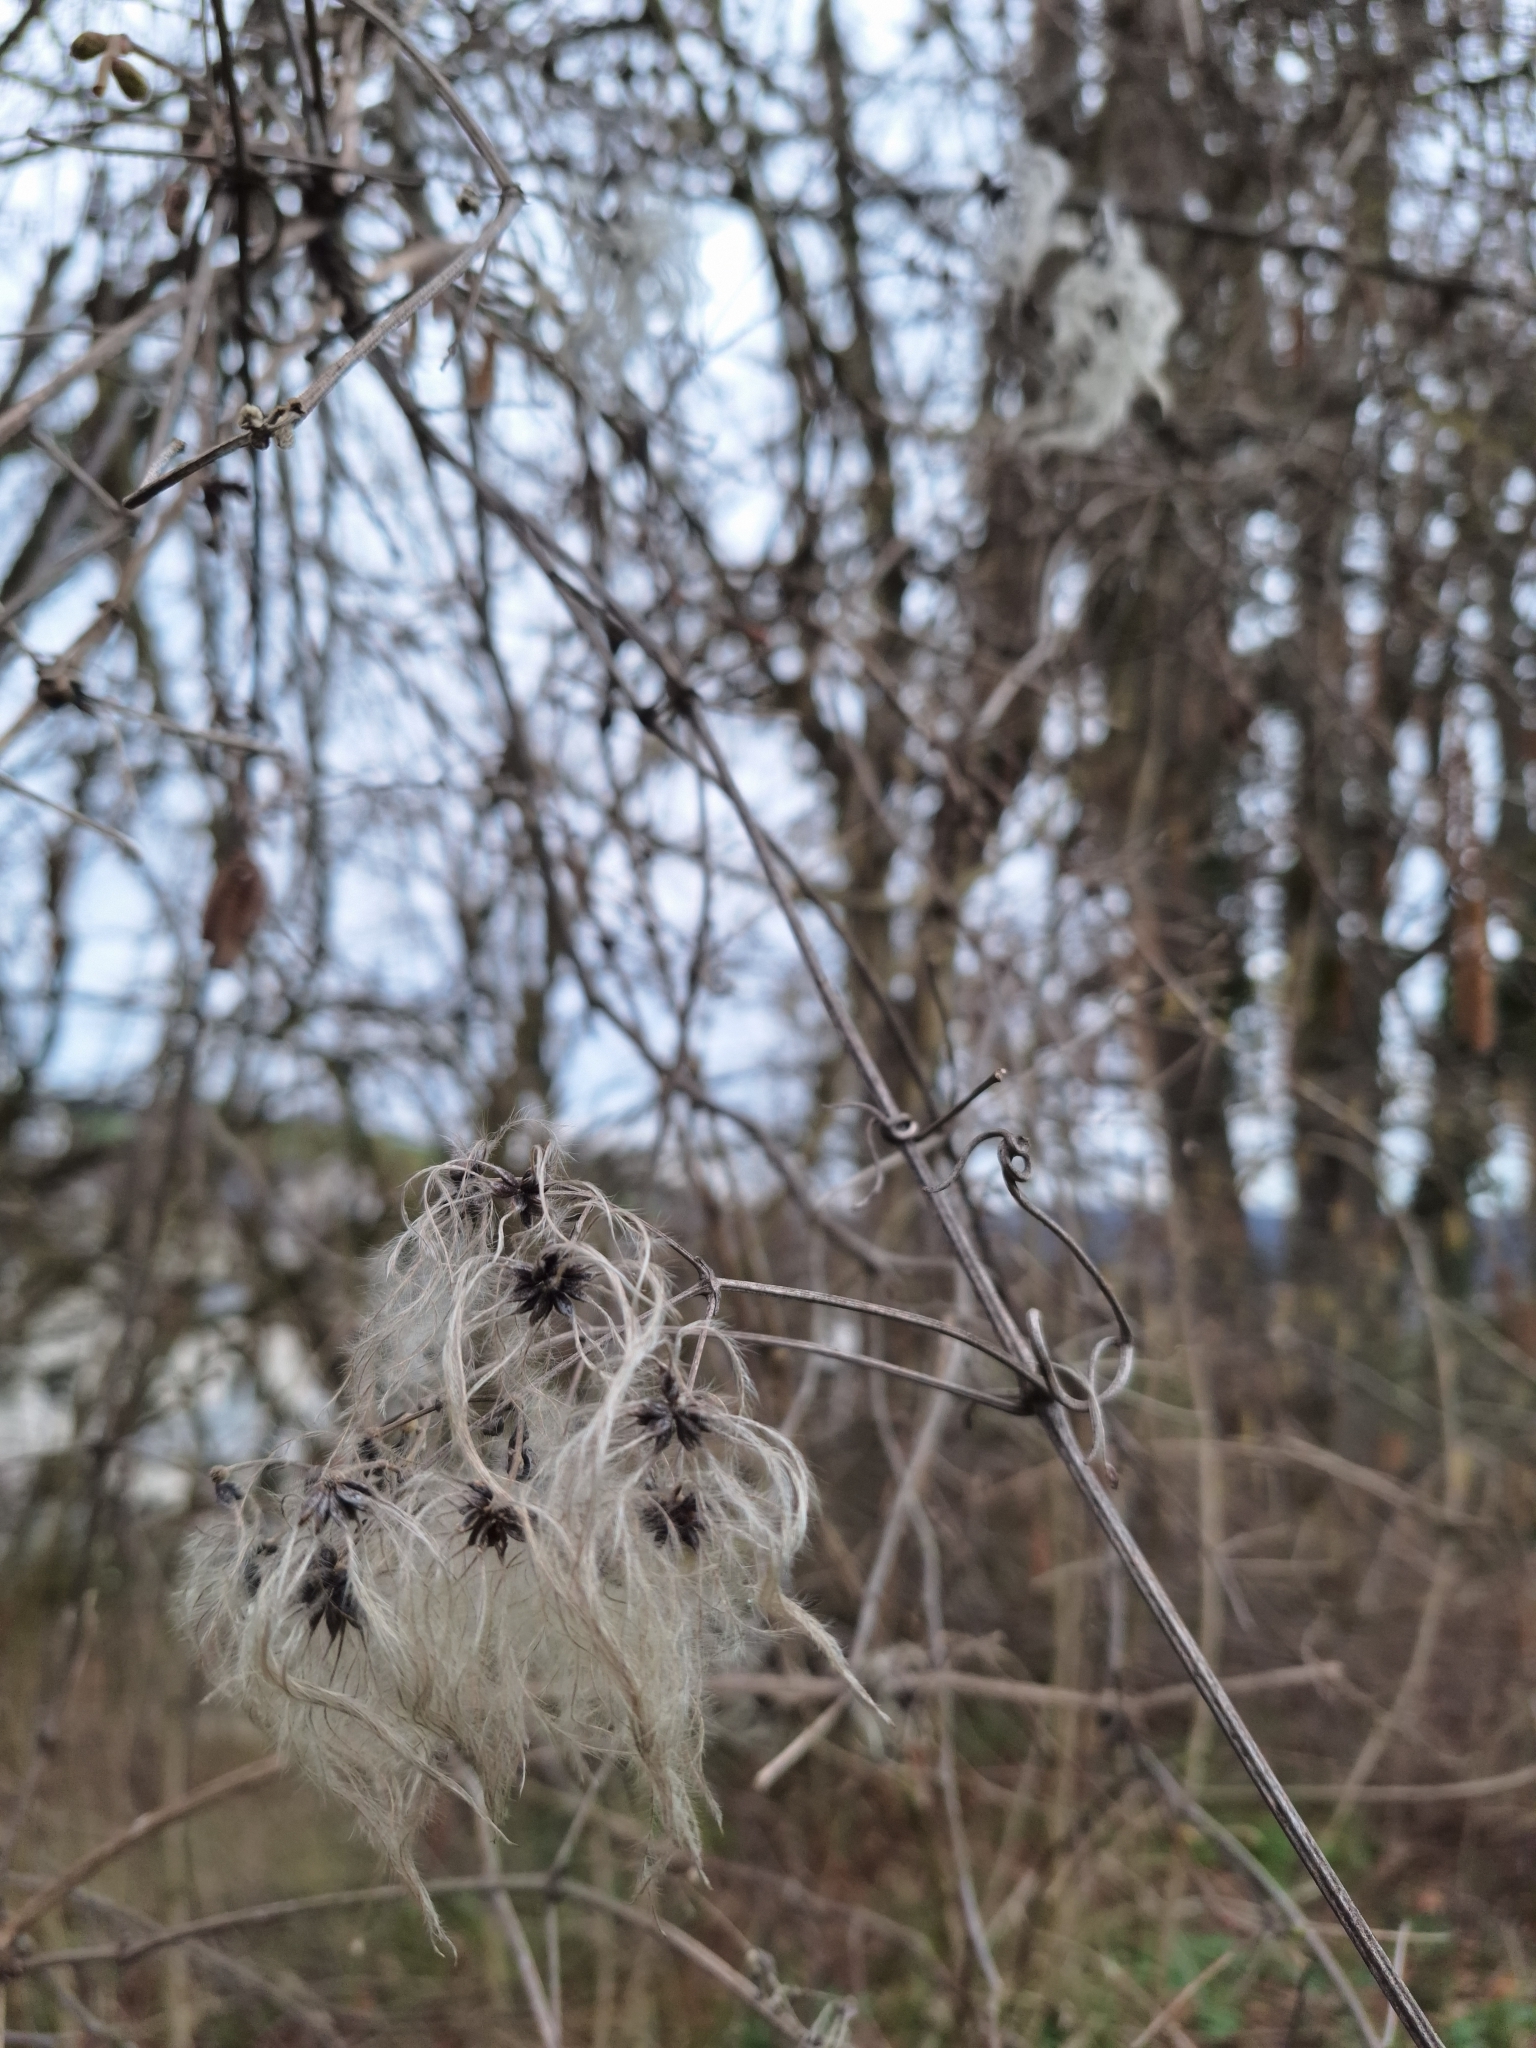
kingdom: Plantae
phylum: Tracheophyta
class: Magnoliopsida
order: Ranunculales
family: Ranunculaceae
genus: Clematis
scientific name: Clematis vitalba
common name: Evergreen clematis
